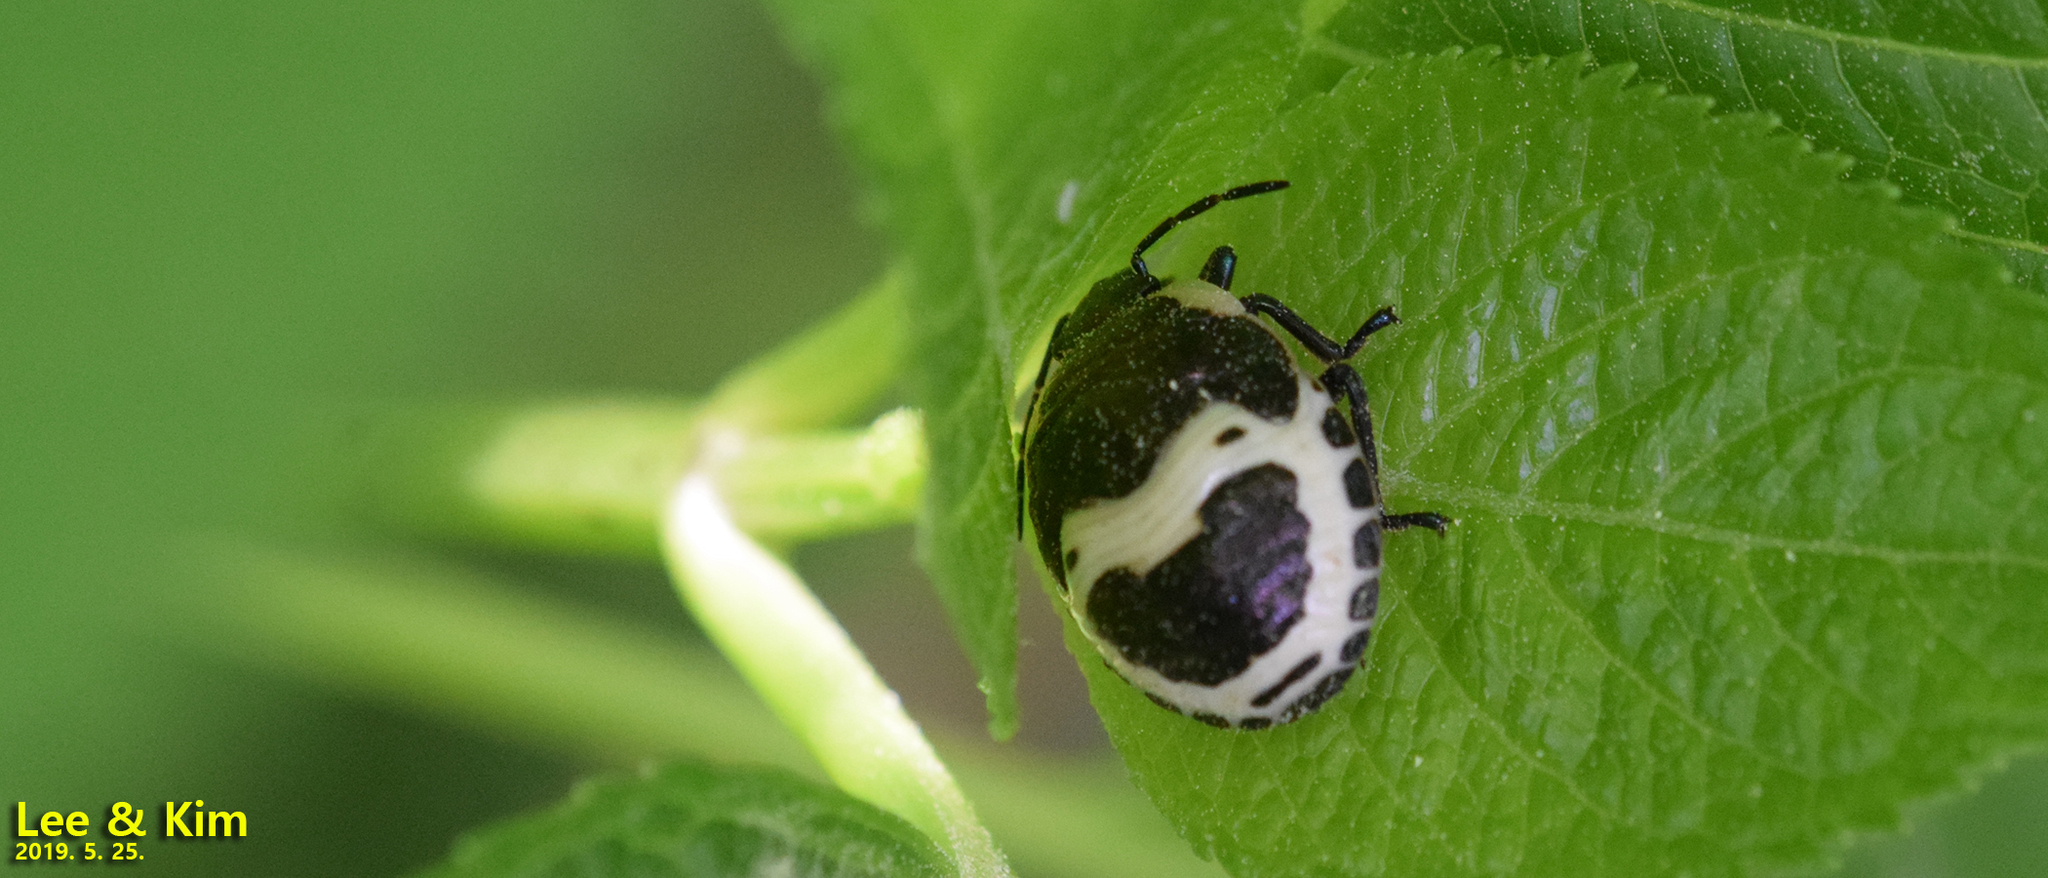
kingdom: Animalia
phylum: Arthropoda
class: Insecta
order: Hemiptera
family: Scutelleridae
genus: Poecilocoris
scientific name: Poecilocoris lewisi
